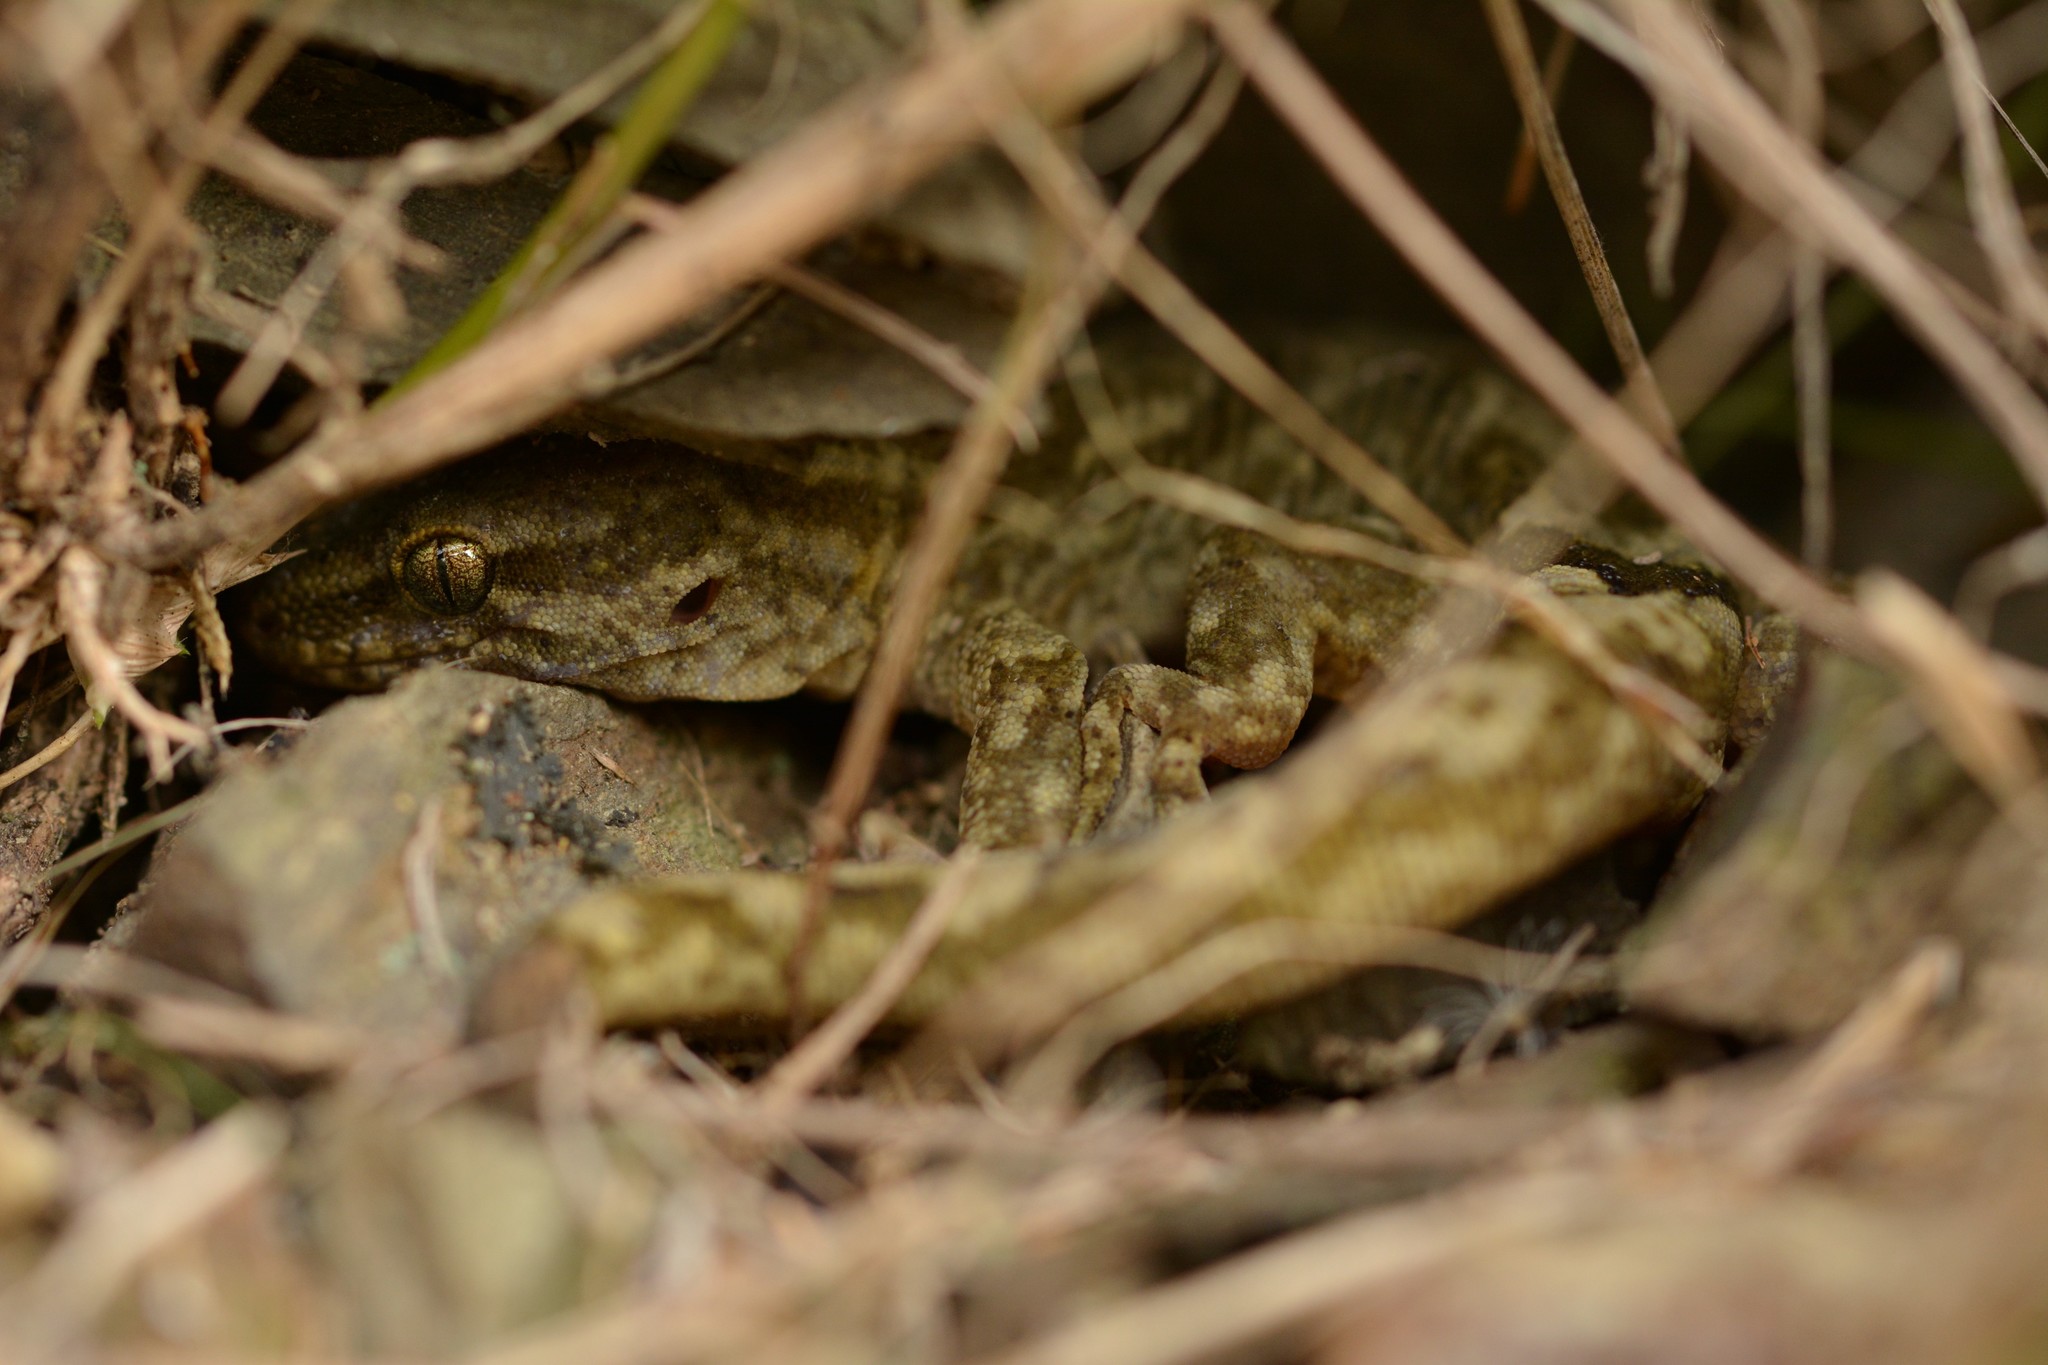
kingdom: Animalia
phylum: Chordata
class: Squamata
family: Diplodactylidae
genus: Woodworthia
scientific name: Woodworthia
